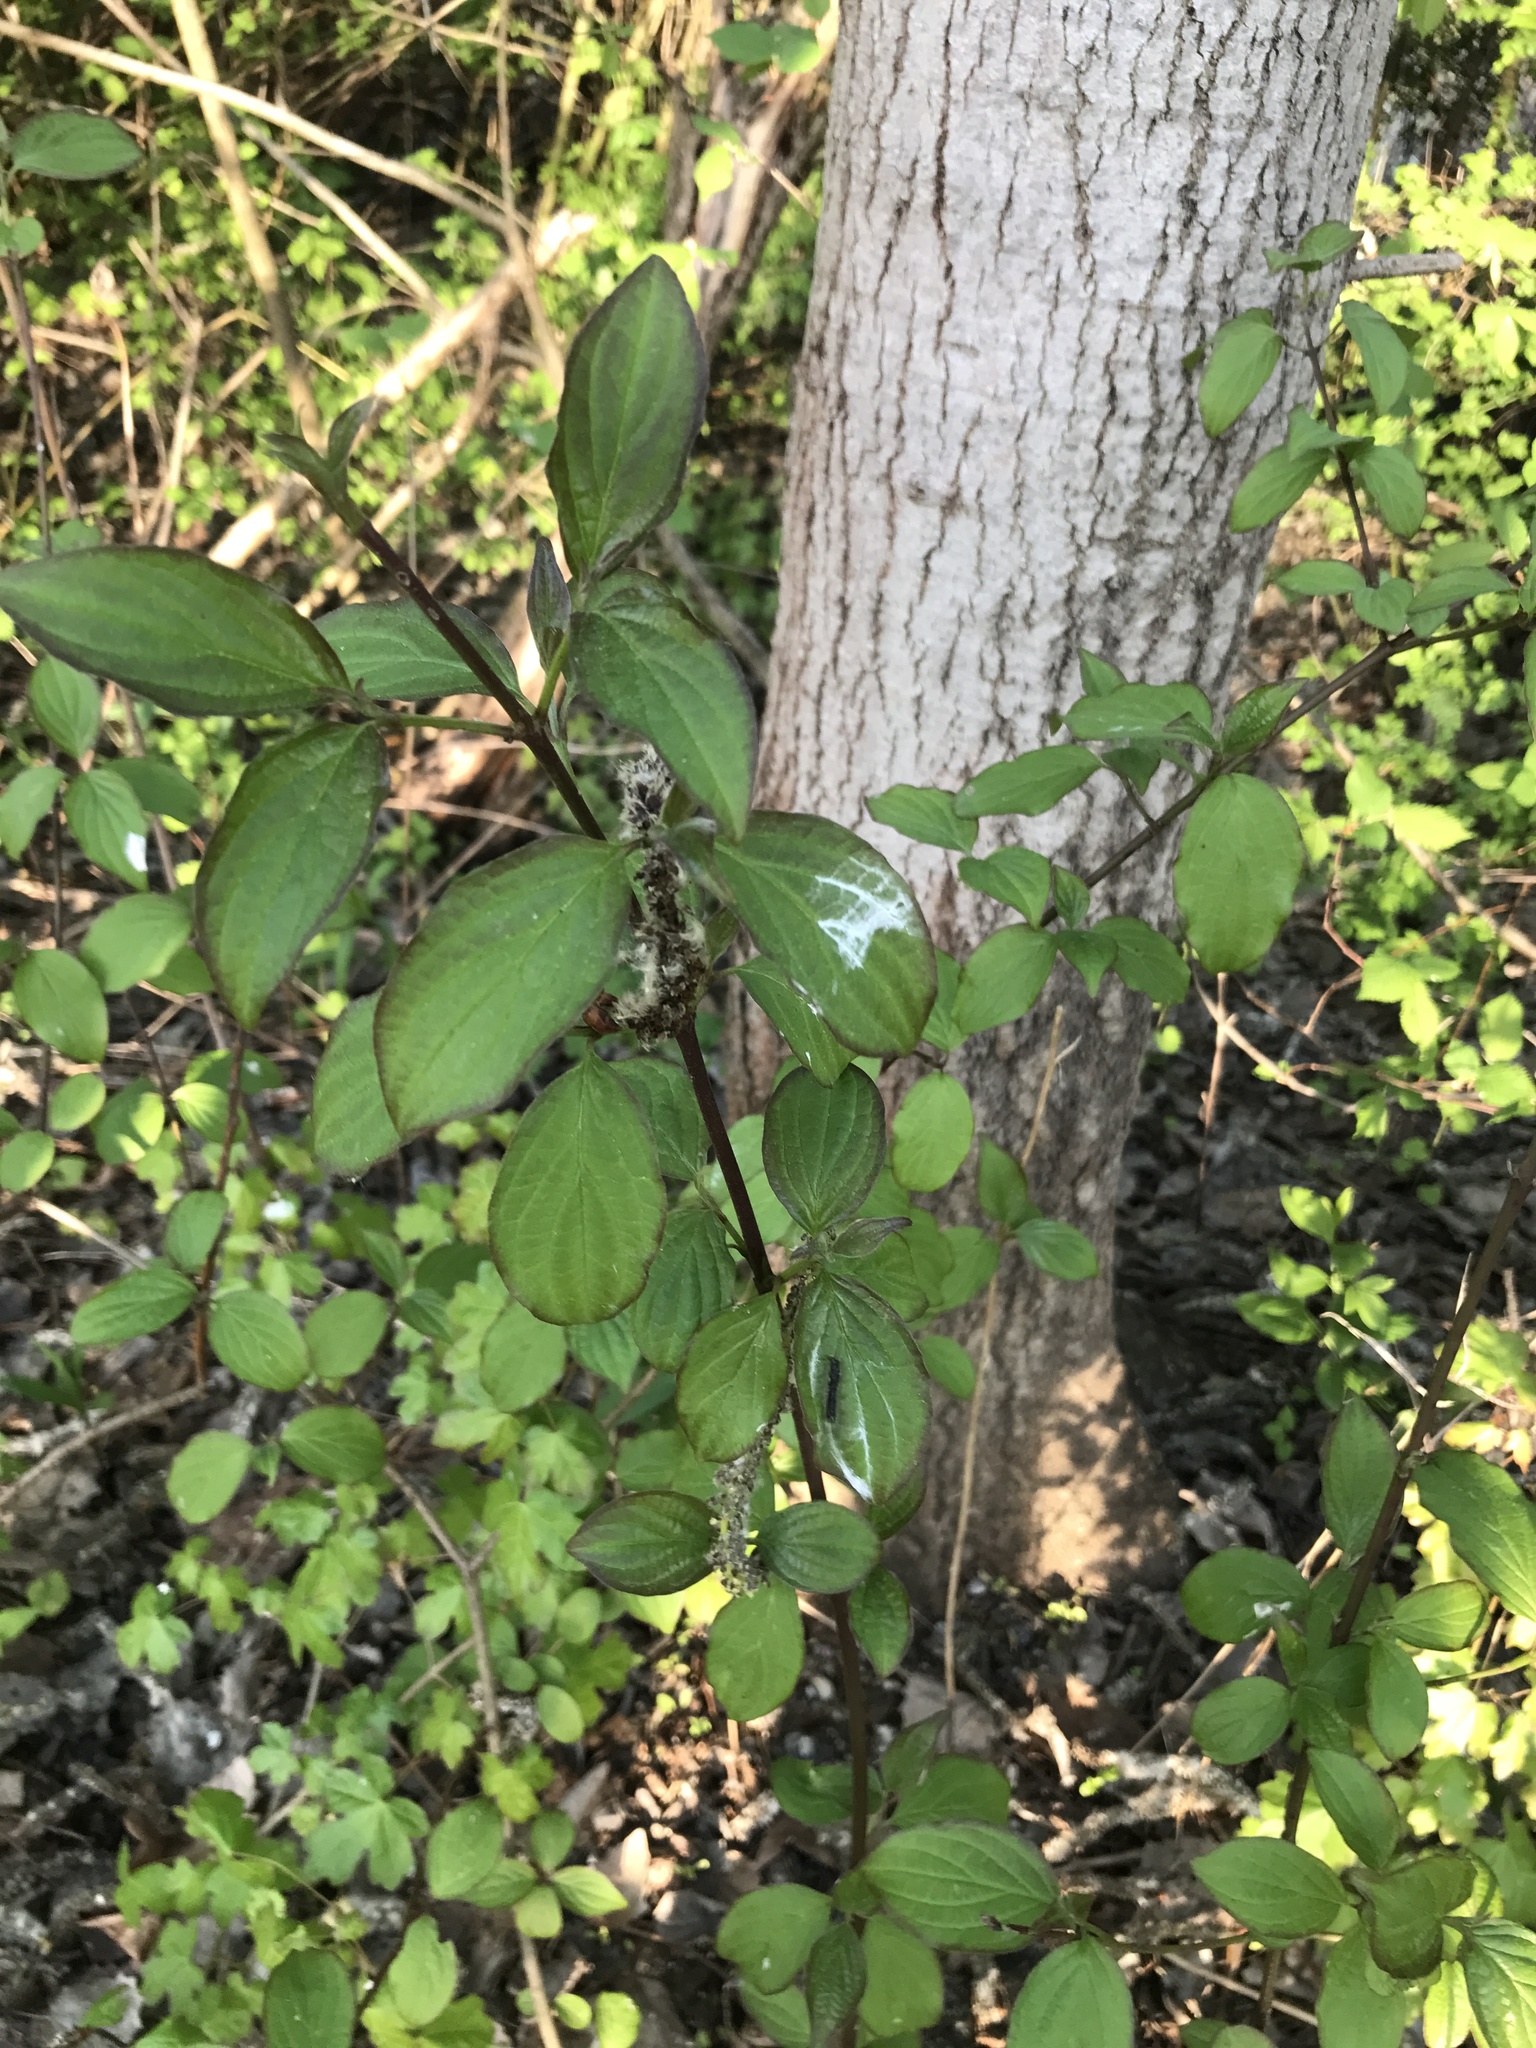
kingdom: Plantae
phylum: Tracheophyta
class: Magnoliopsida
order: Cornales
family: Cornaceae
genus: Cornus
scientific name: Cornus sanguinea
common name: Dogwood
